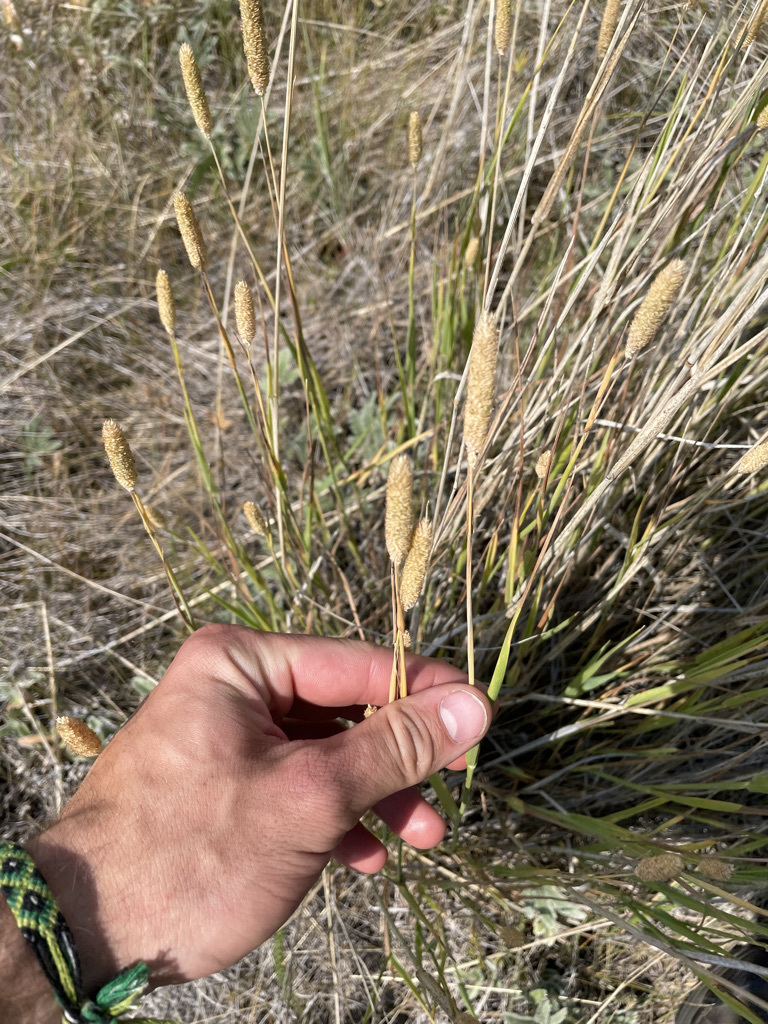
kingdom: Plantae
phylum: Tracheophyta
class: Liliopsida
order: Poales
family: Poaceae
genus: Phleum
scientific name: Phleum pratense
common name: Timothy grass
